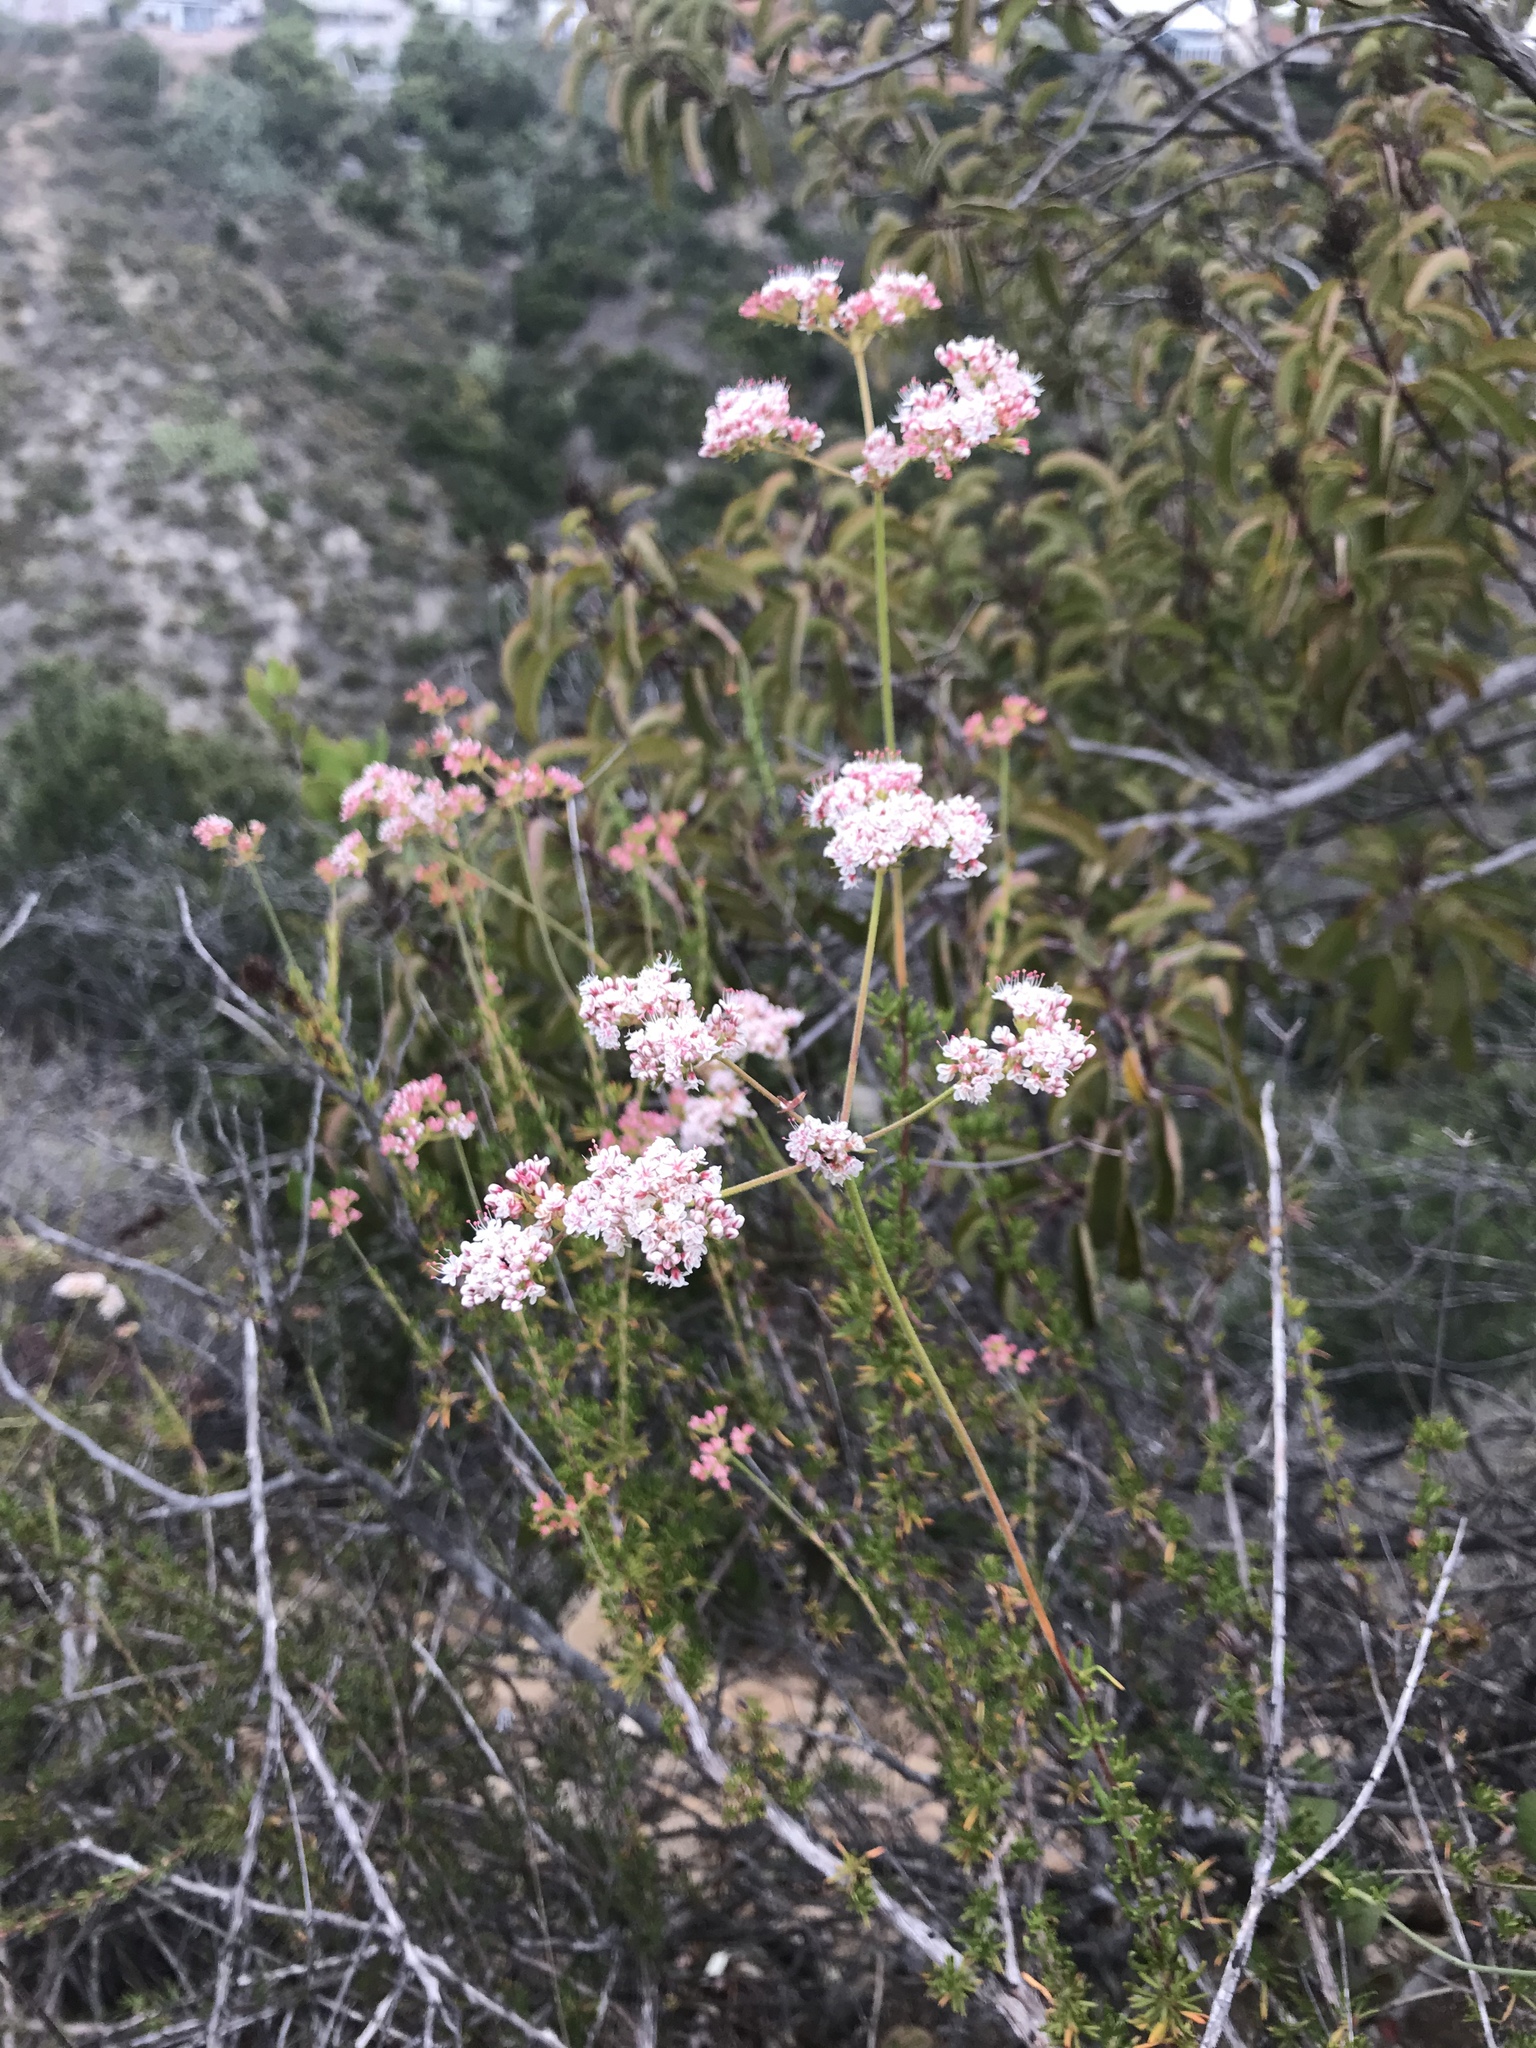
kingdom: Plantae
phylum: Tracheophyta
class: Magnoliopsida
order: Caryophyllales
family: Polygonaceae
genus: Eriogonum
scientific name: Eriogonum fasciculatum
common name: California wild buckwheat
